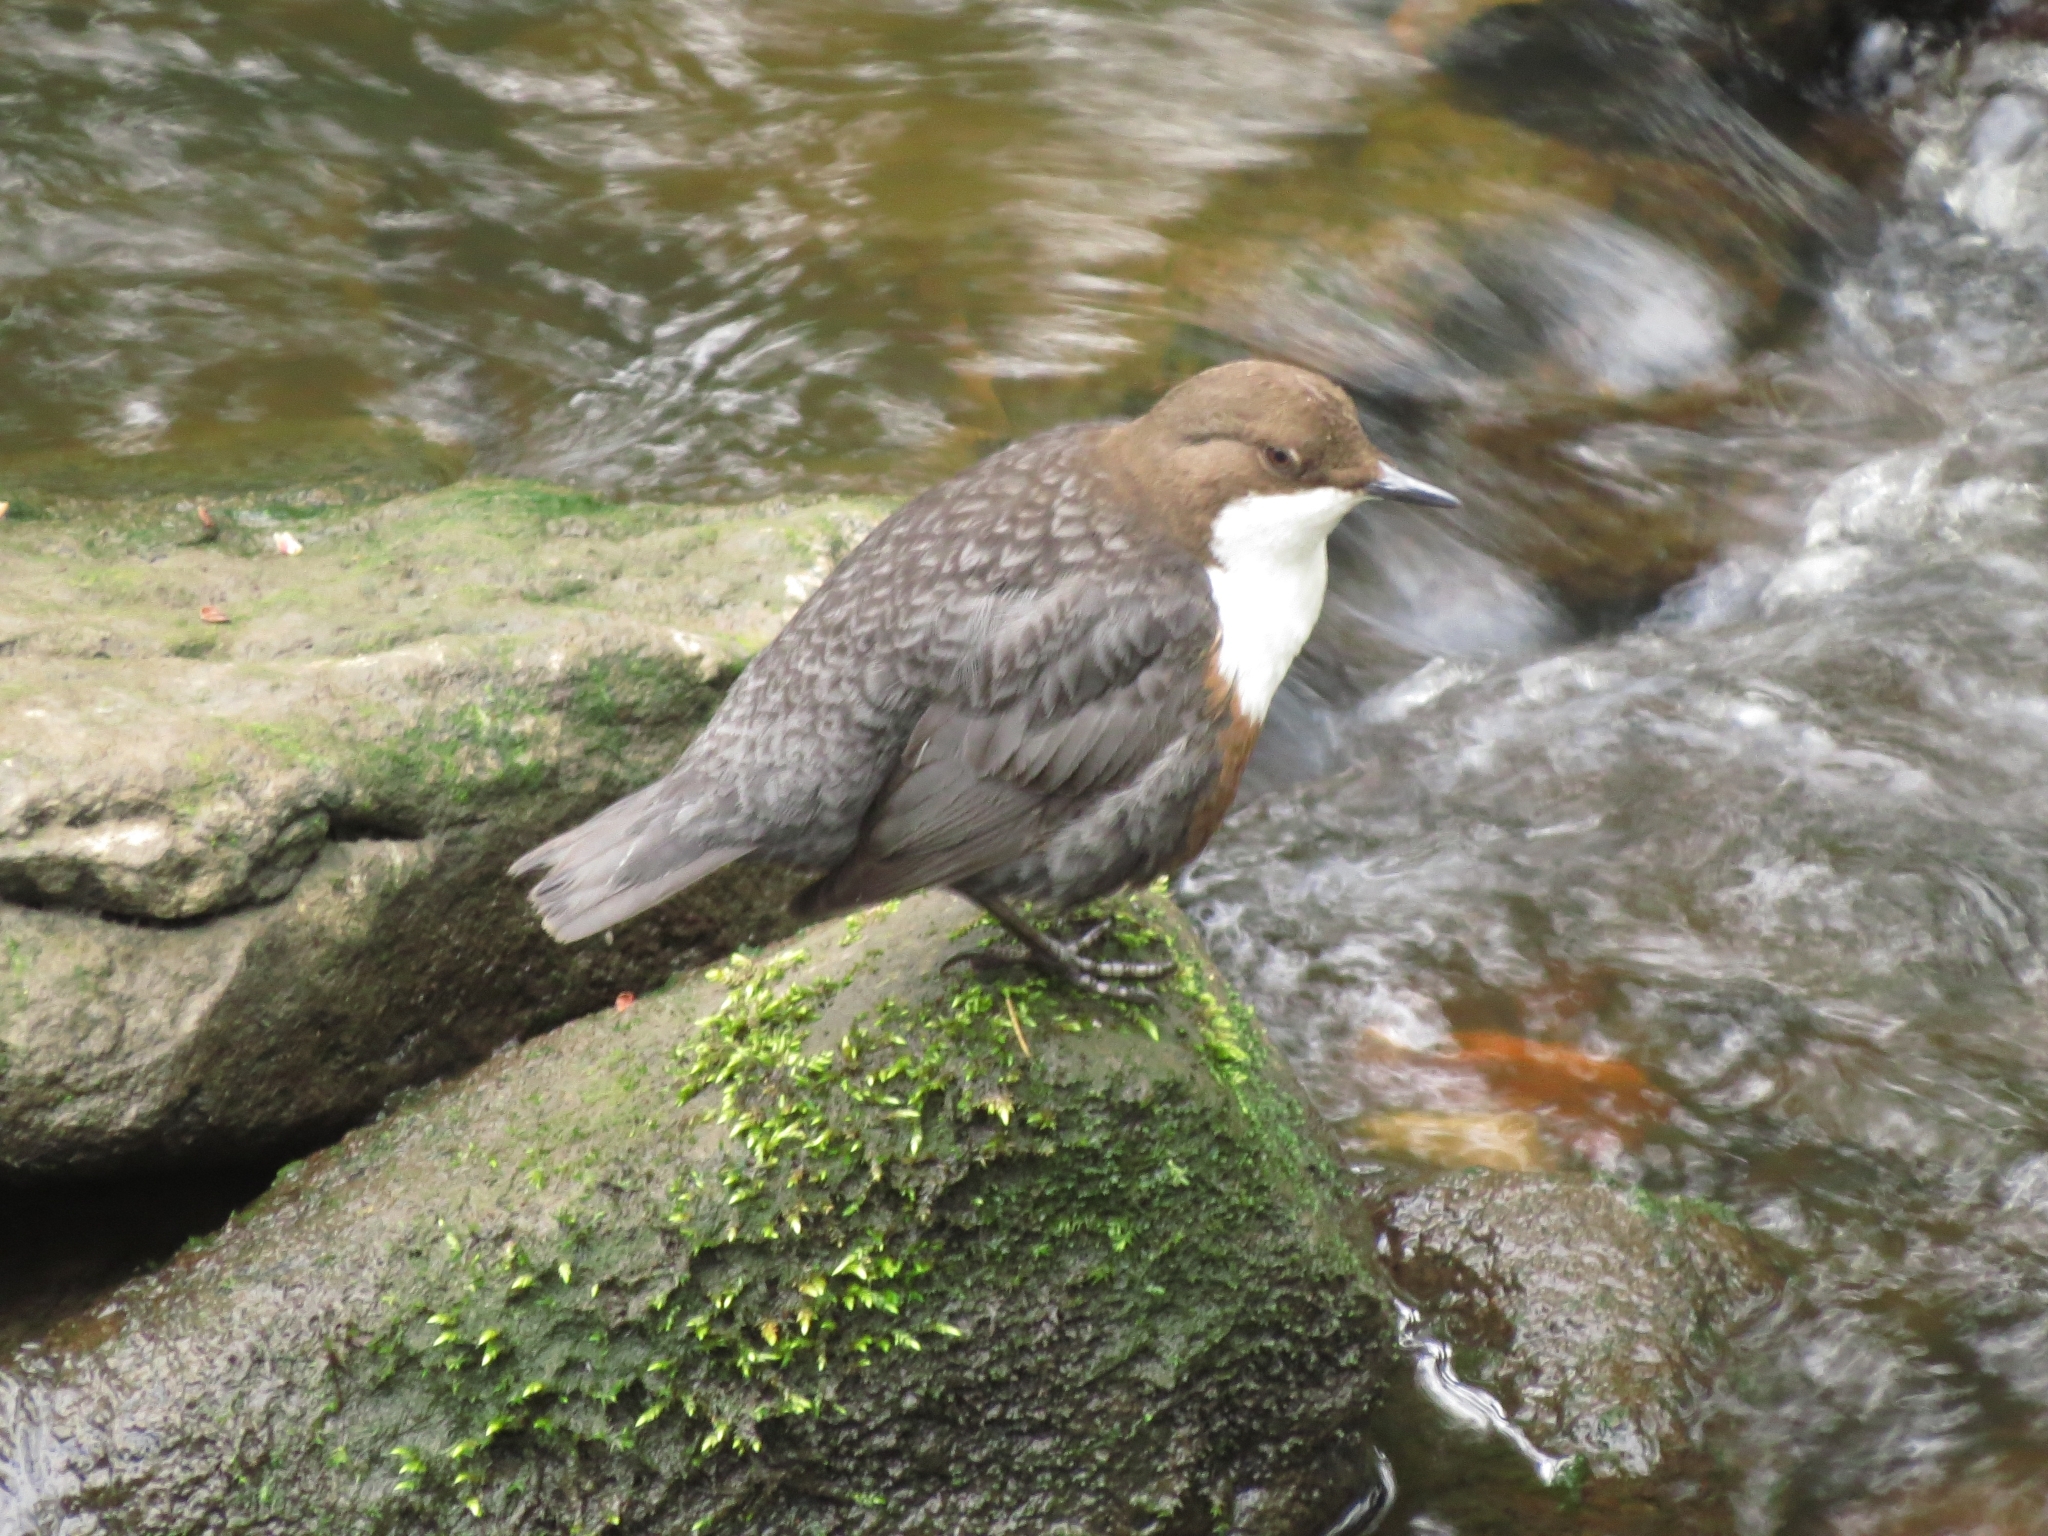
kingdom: Animalia
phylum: Chordata
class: Aves
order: Passeriformes
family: Cinclidae
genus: Cinclus
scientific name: Cinclus cinclus
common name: White-throated dipper
